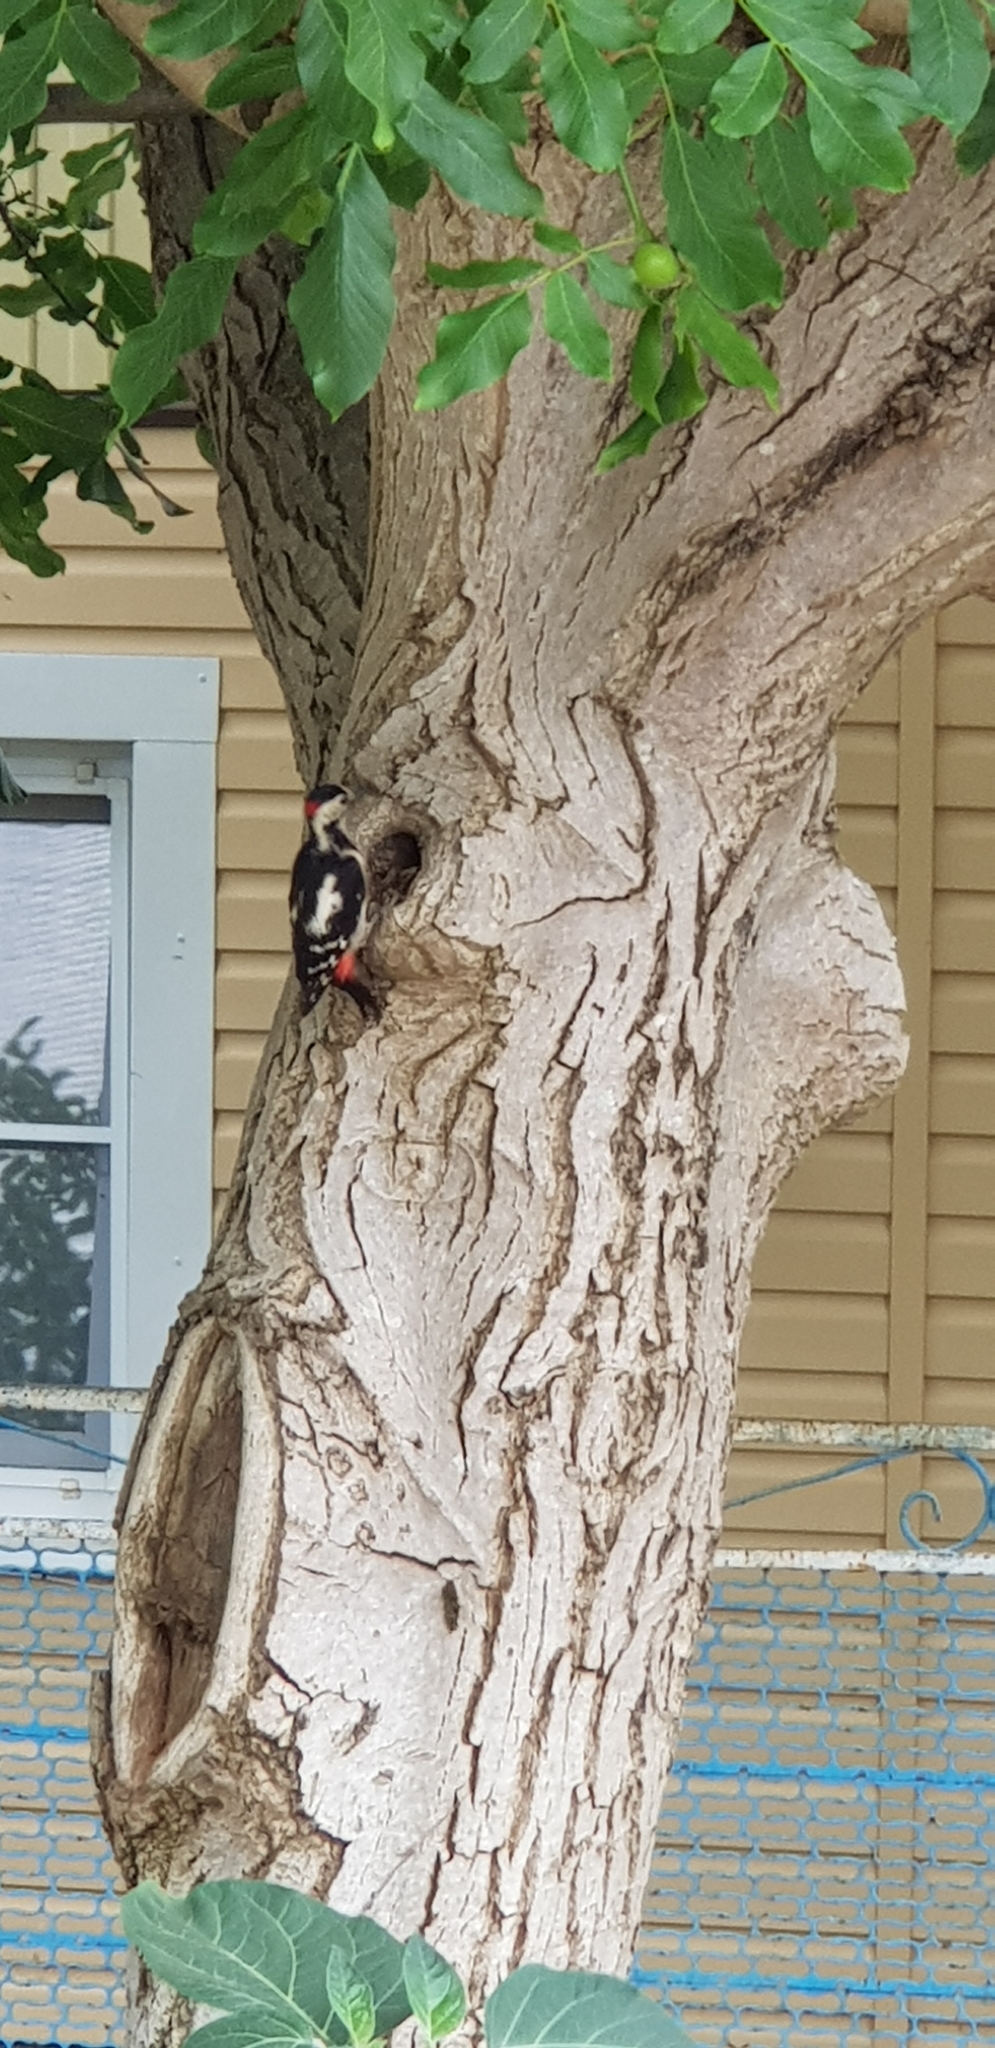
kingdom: Animalia
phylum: Chordata
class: Aves
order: Piciformes
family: Picidae
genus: Dendrocopos
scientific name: Dendrocopos syriacus
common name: Syrian woodpecker
